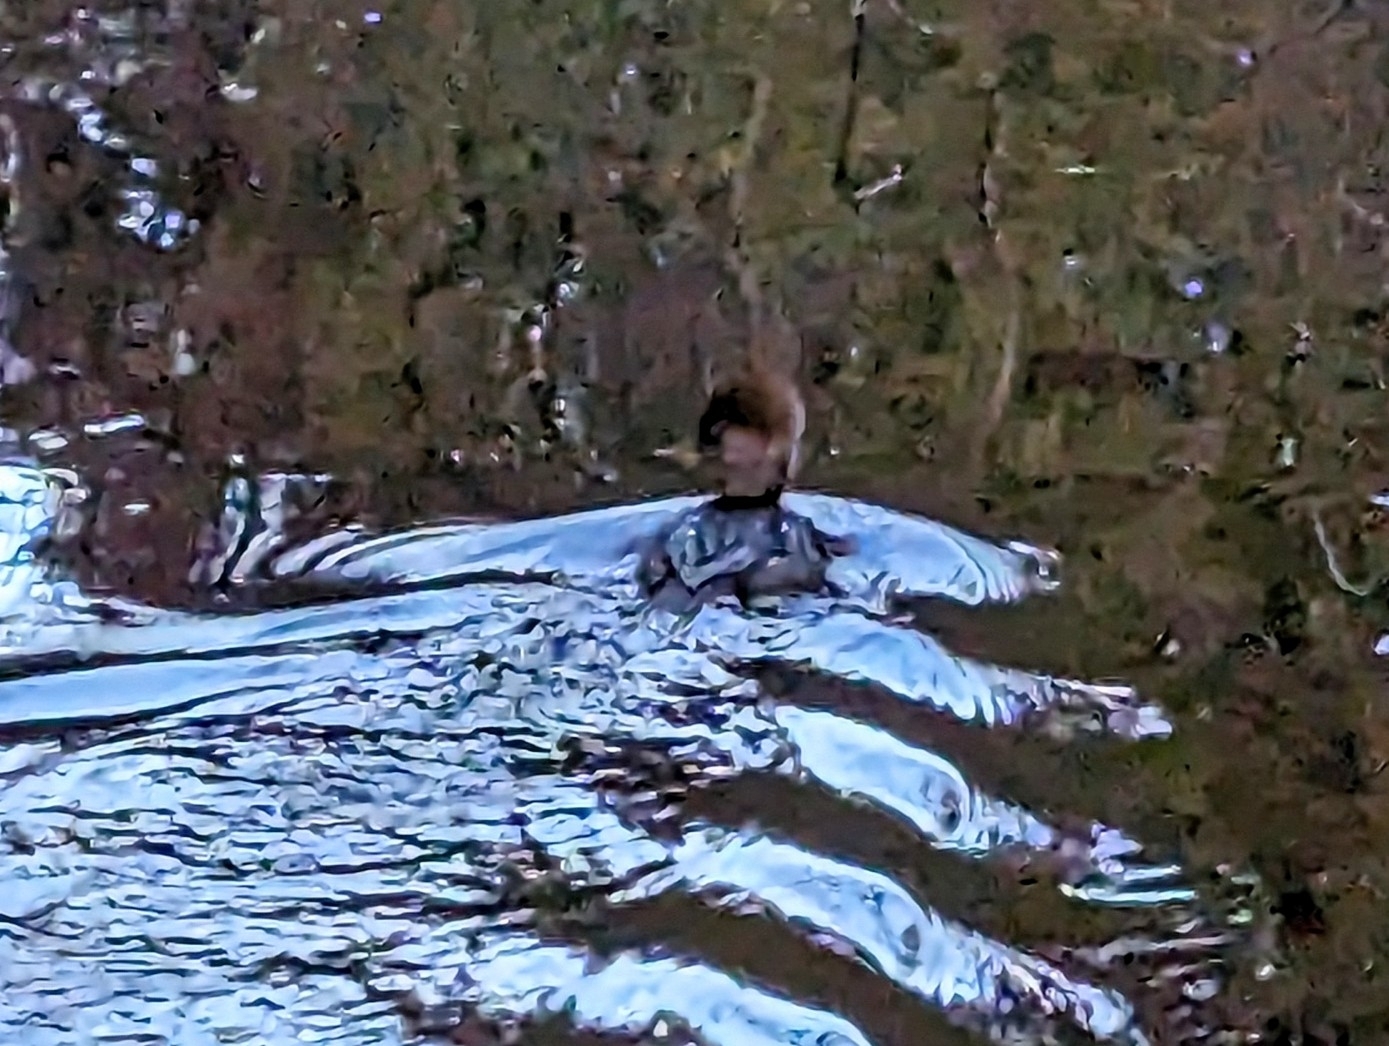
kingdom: Animalia
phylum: Chordata
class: Aves
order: Anseriformes
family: Anatidae
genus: Lophodytes
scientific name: Lophodytes cucullatus
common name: Hooded merganser
